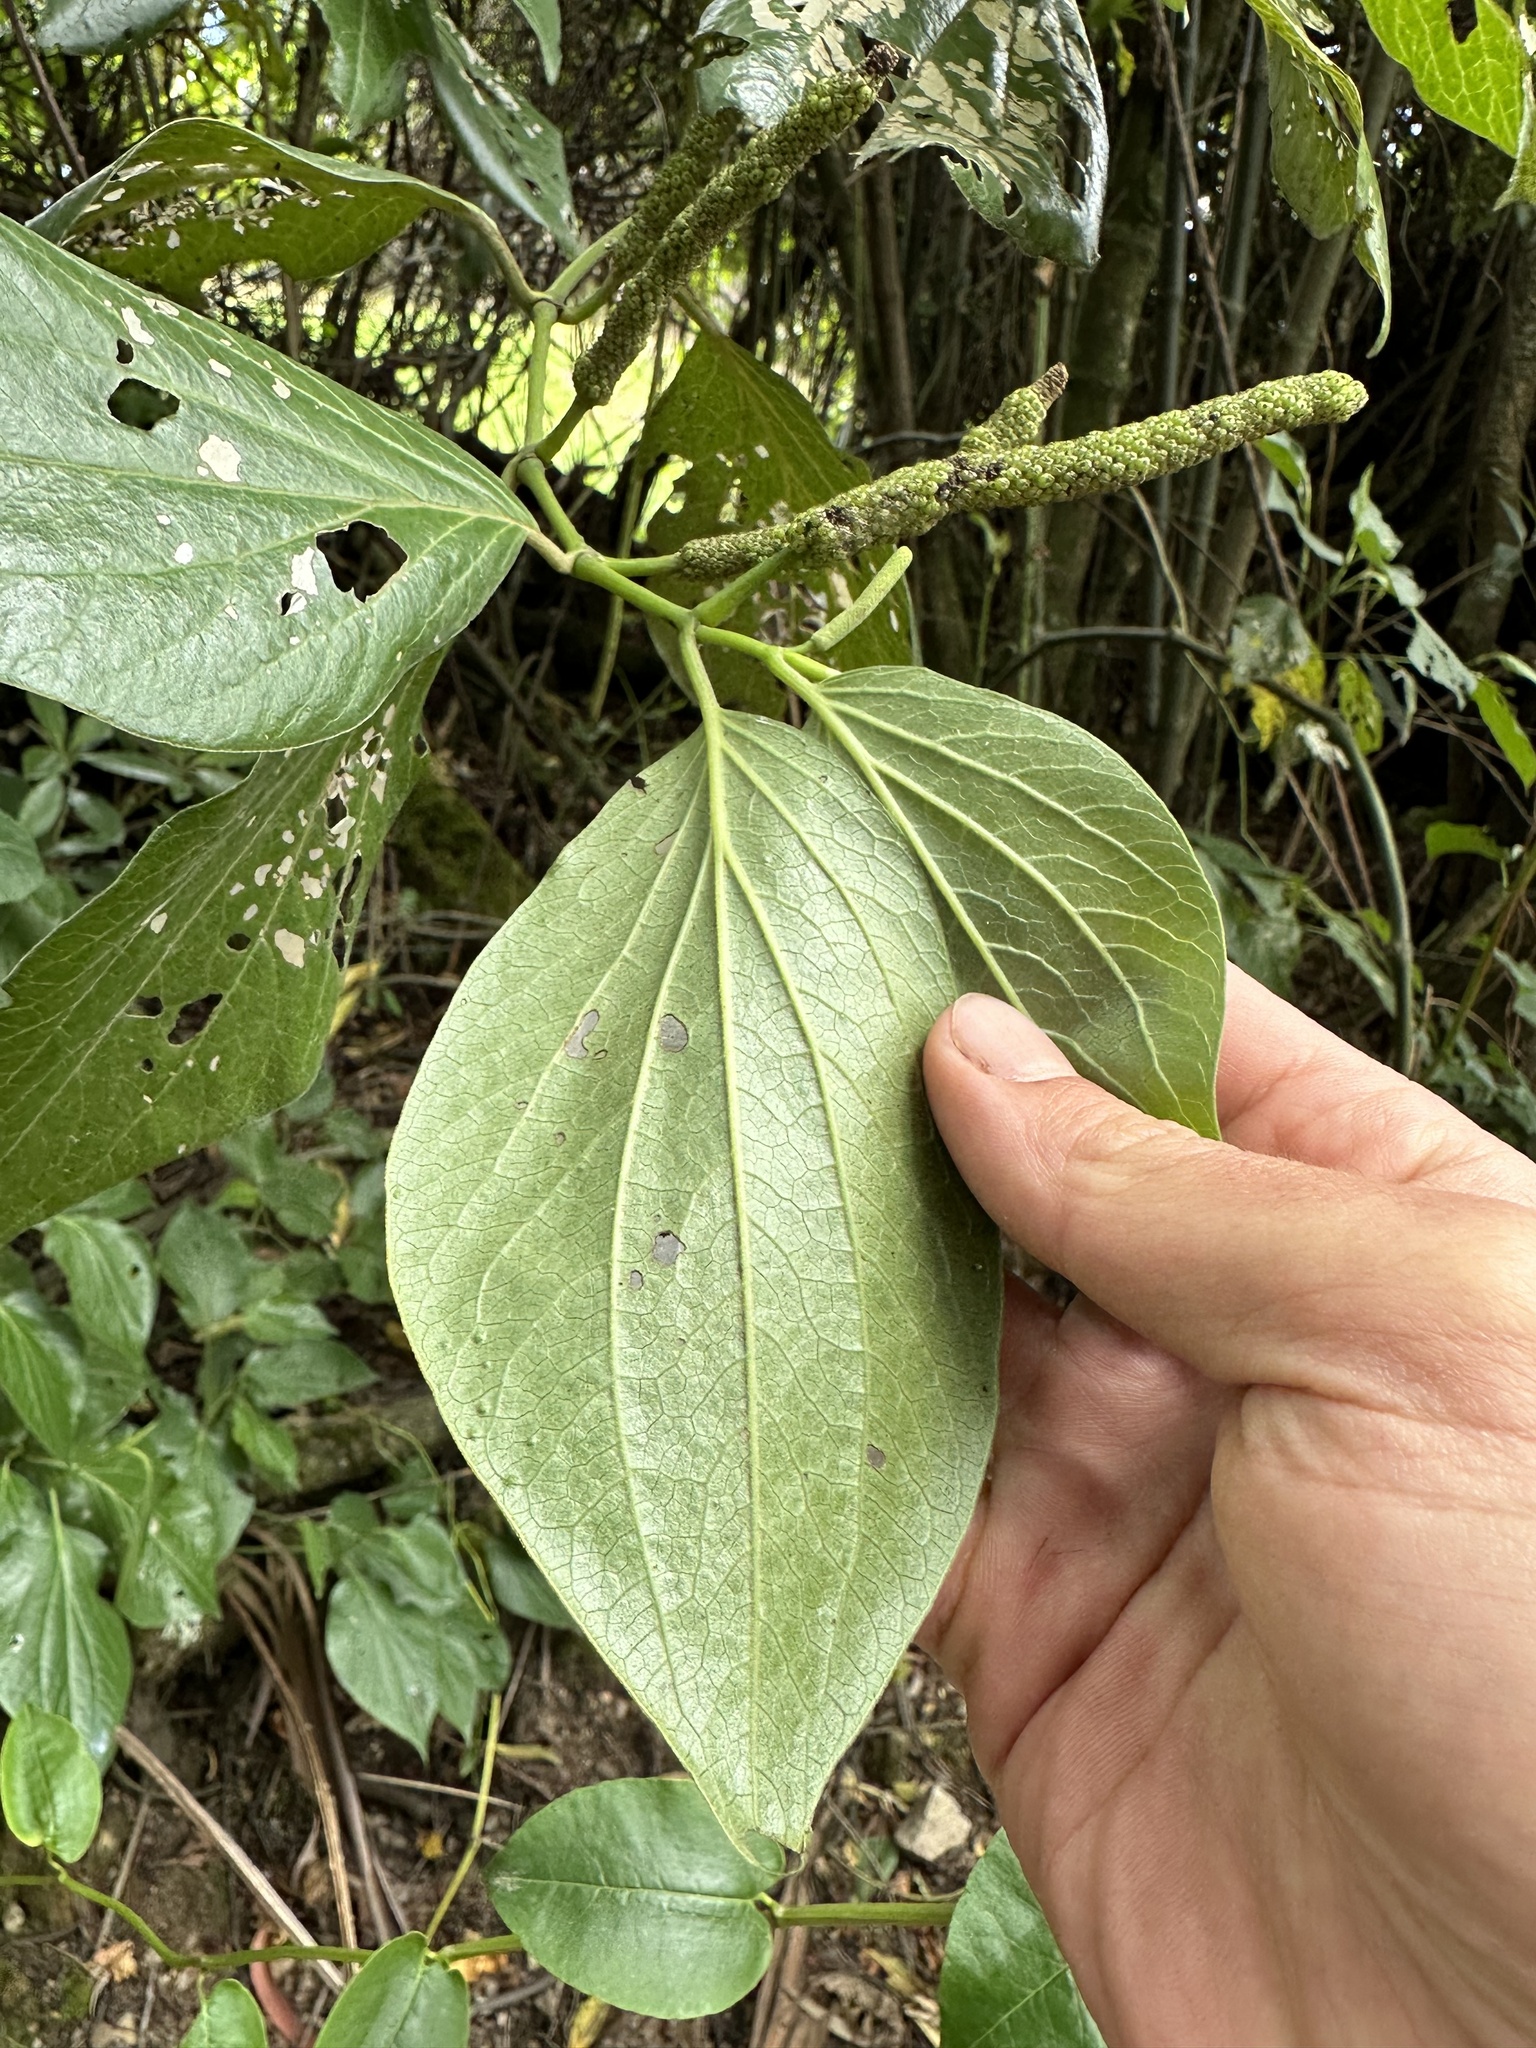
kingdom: Plantae
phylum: Tracheophyta
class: Magnoliopsida
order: Piperales
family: Piperaceae
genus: Piper
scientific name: Piper barbatum
